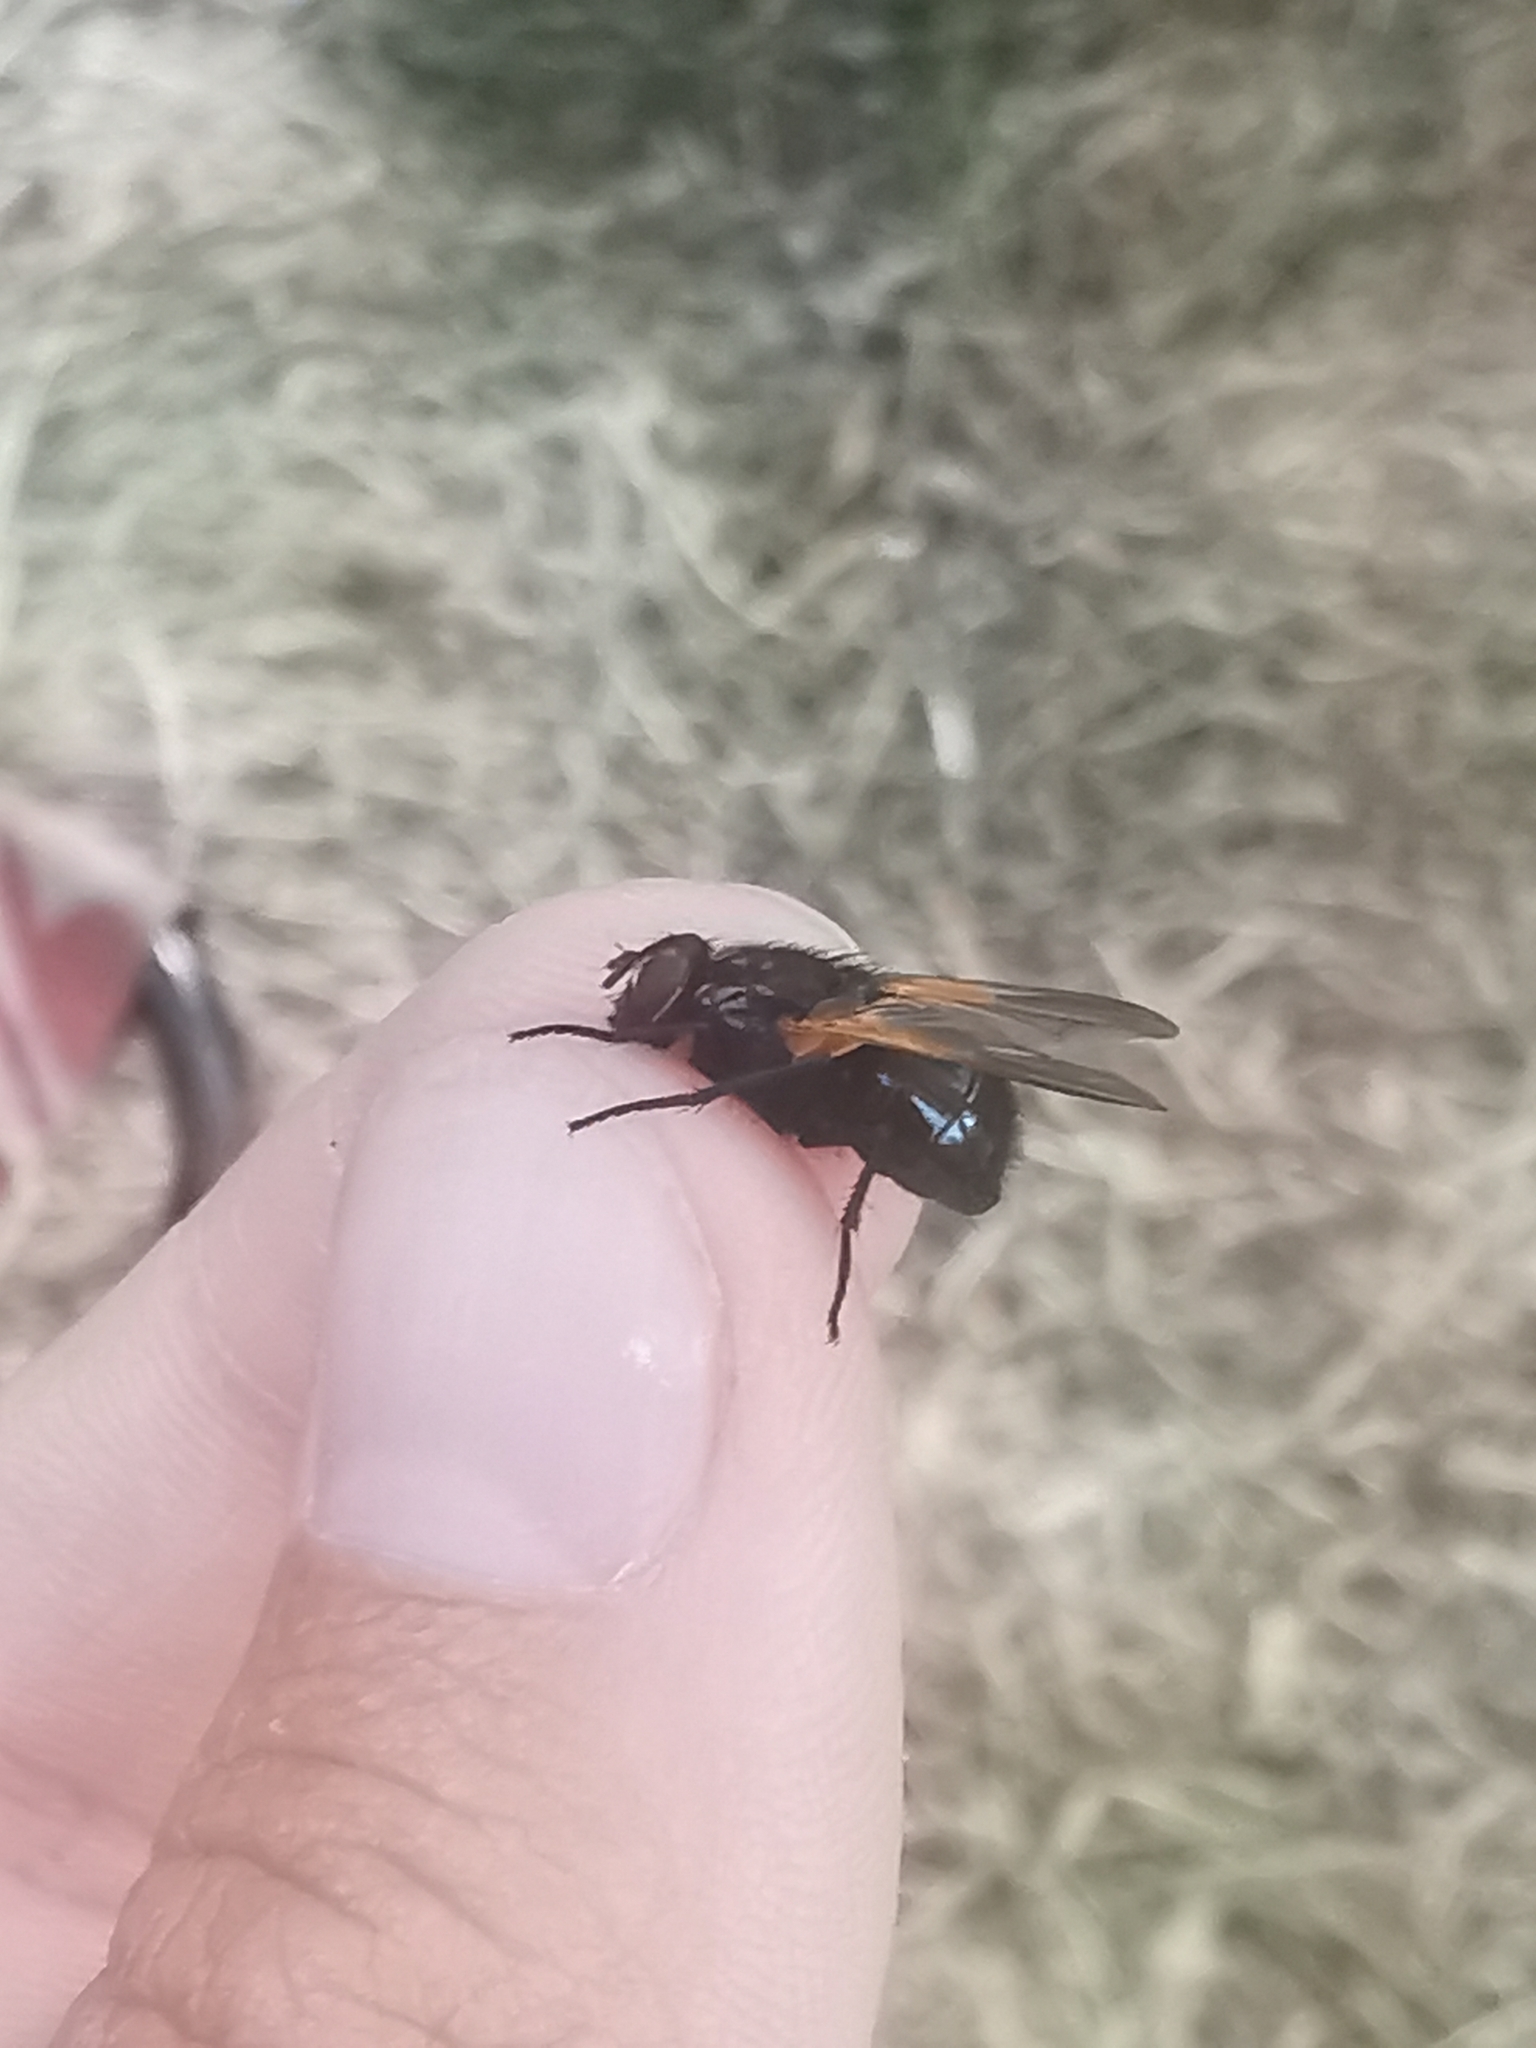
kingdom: Animalia
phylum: Arthropoda
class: Insecta
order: Diptera
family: Muscidae
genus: Mesembrina
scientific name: Mesembrina resplendens
